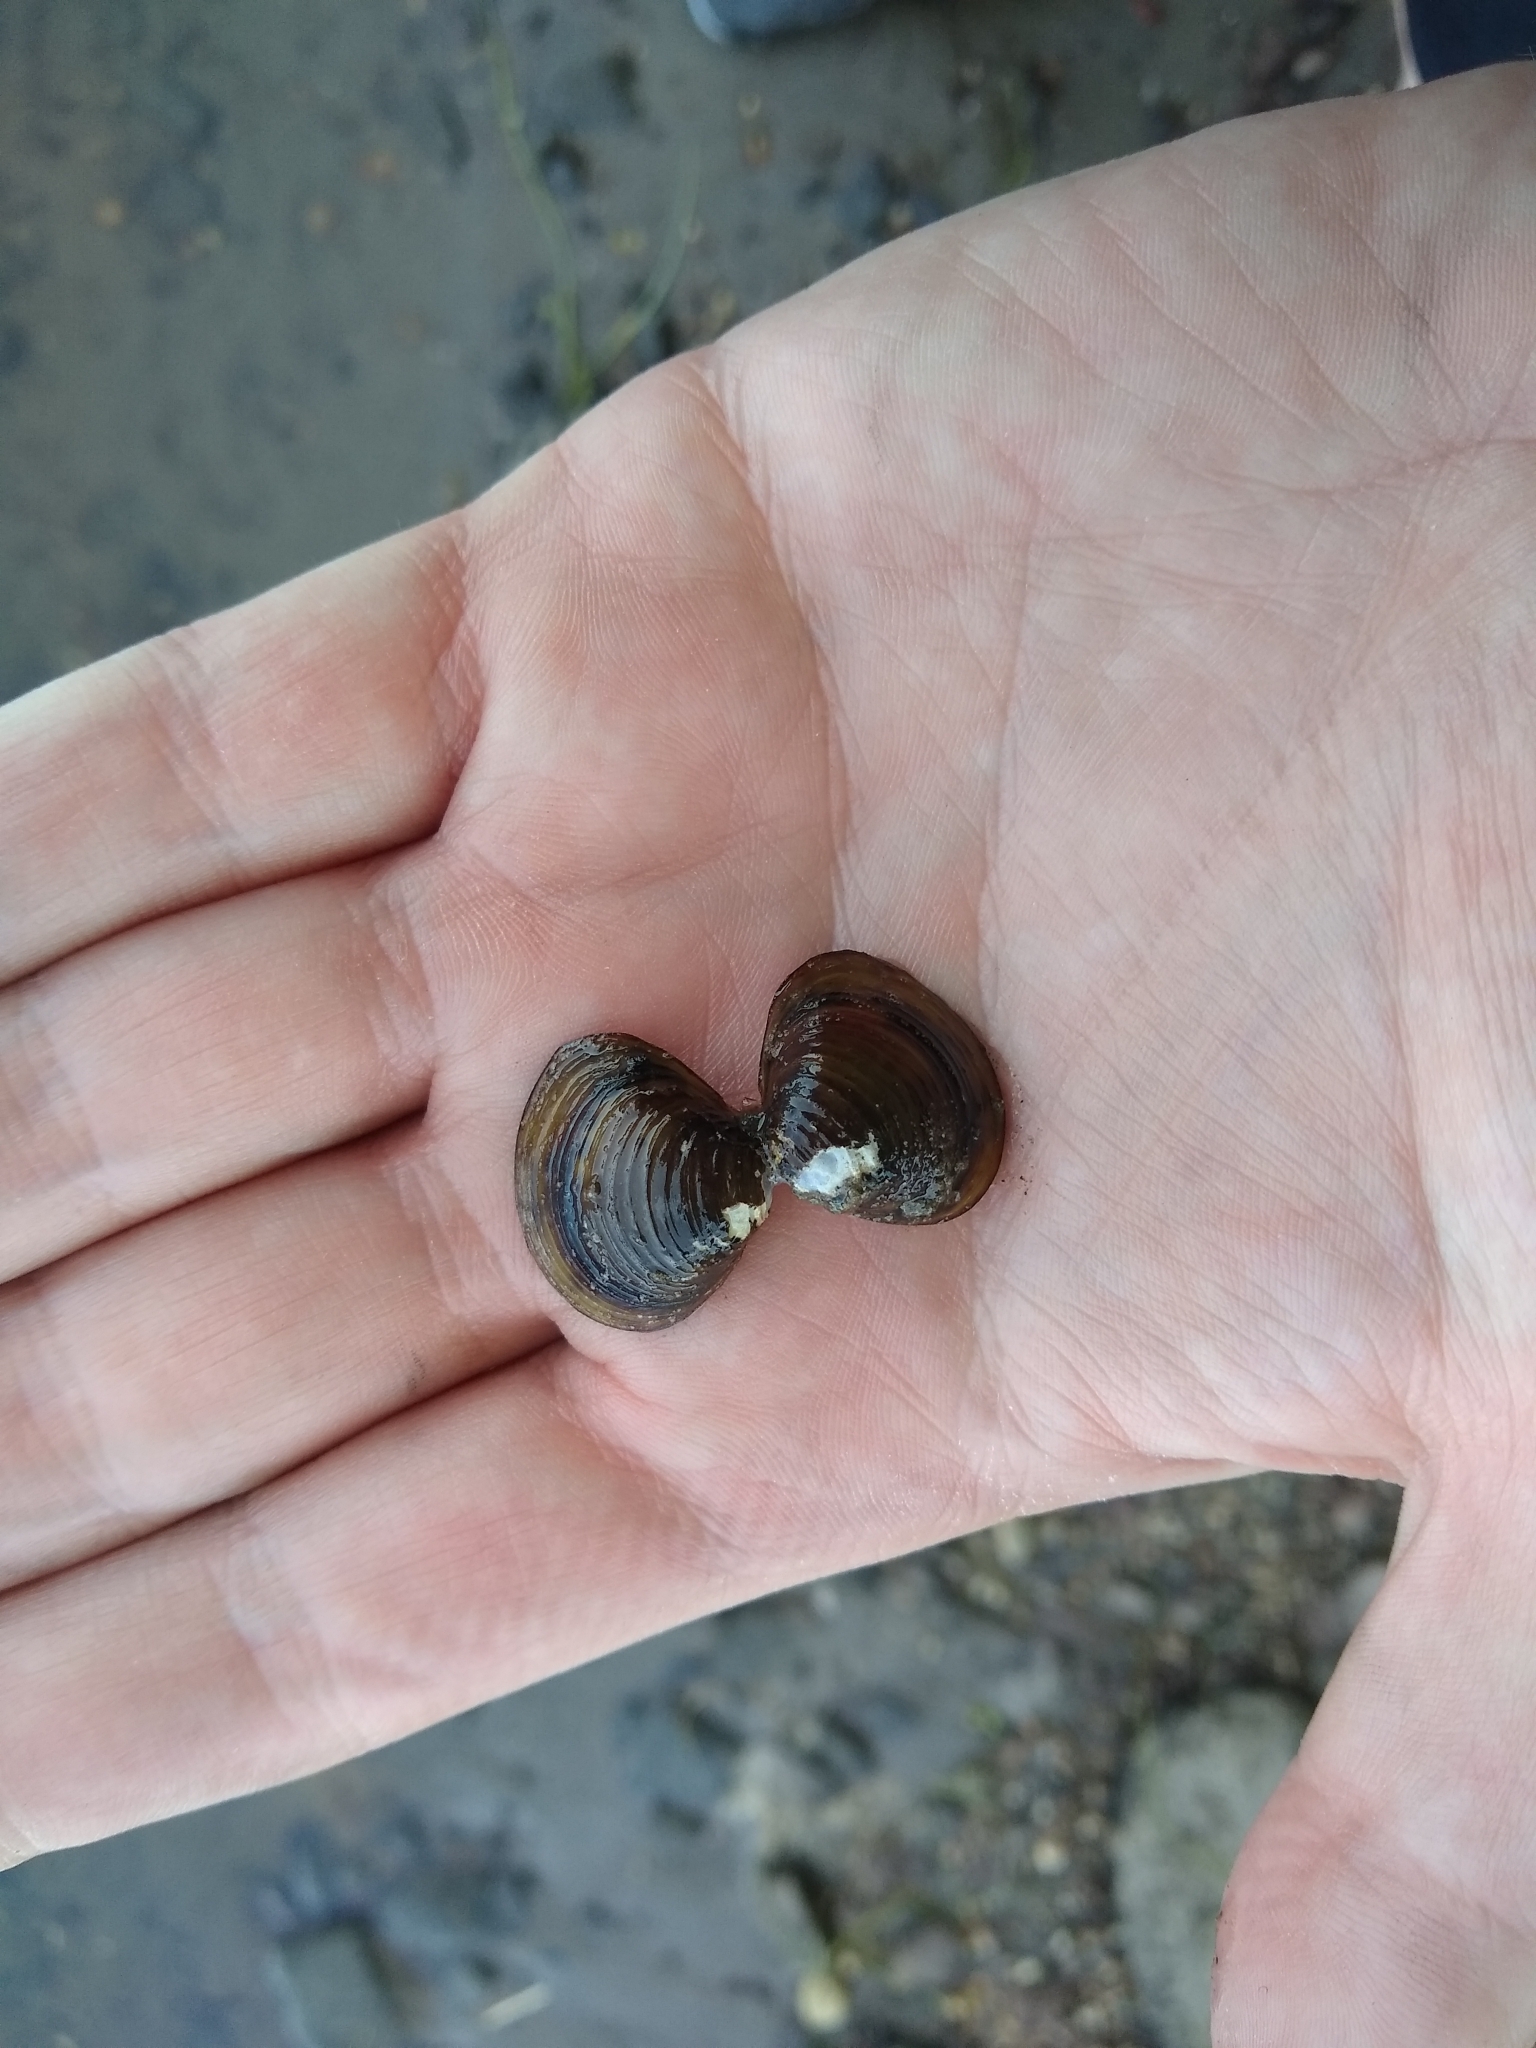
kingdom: Animalia
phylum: Mollusca
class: Bivalvia
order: Venerida
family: Cyrenidae
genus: Corbicula
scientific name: Corbicula fluminea
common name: Asian clam
